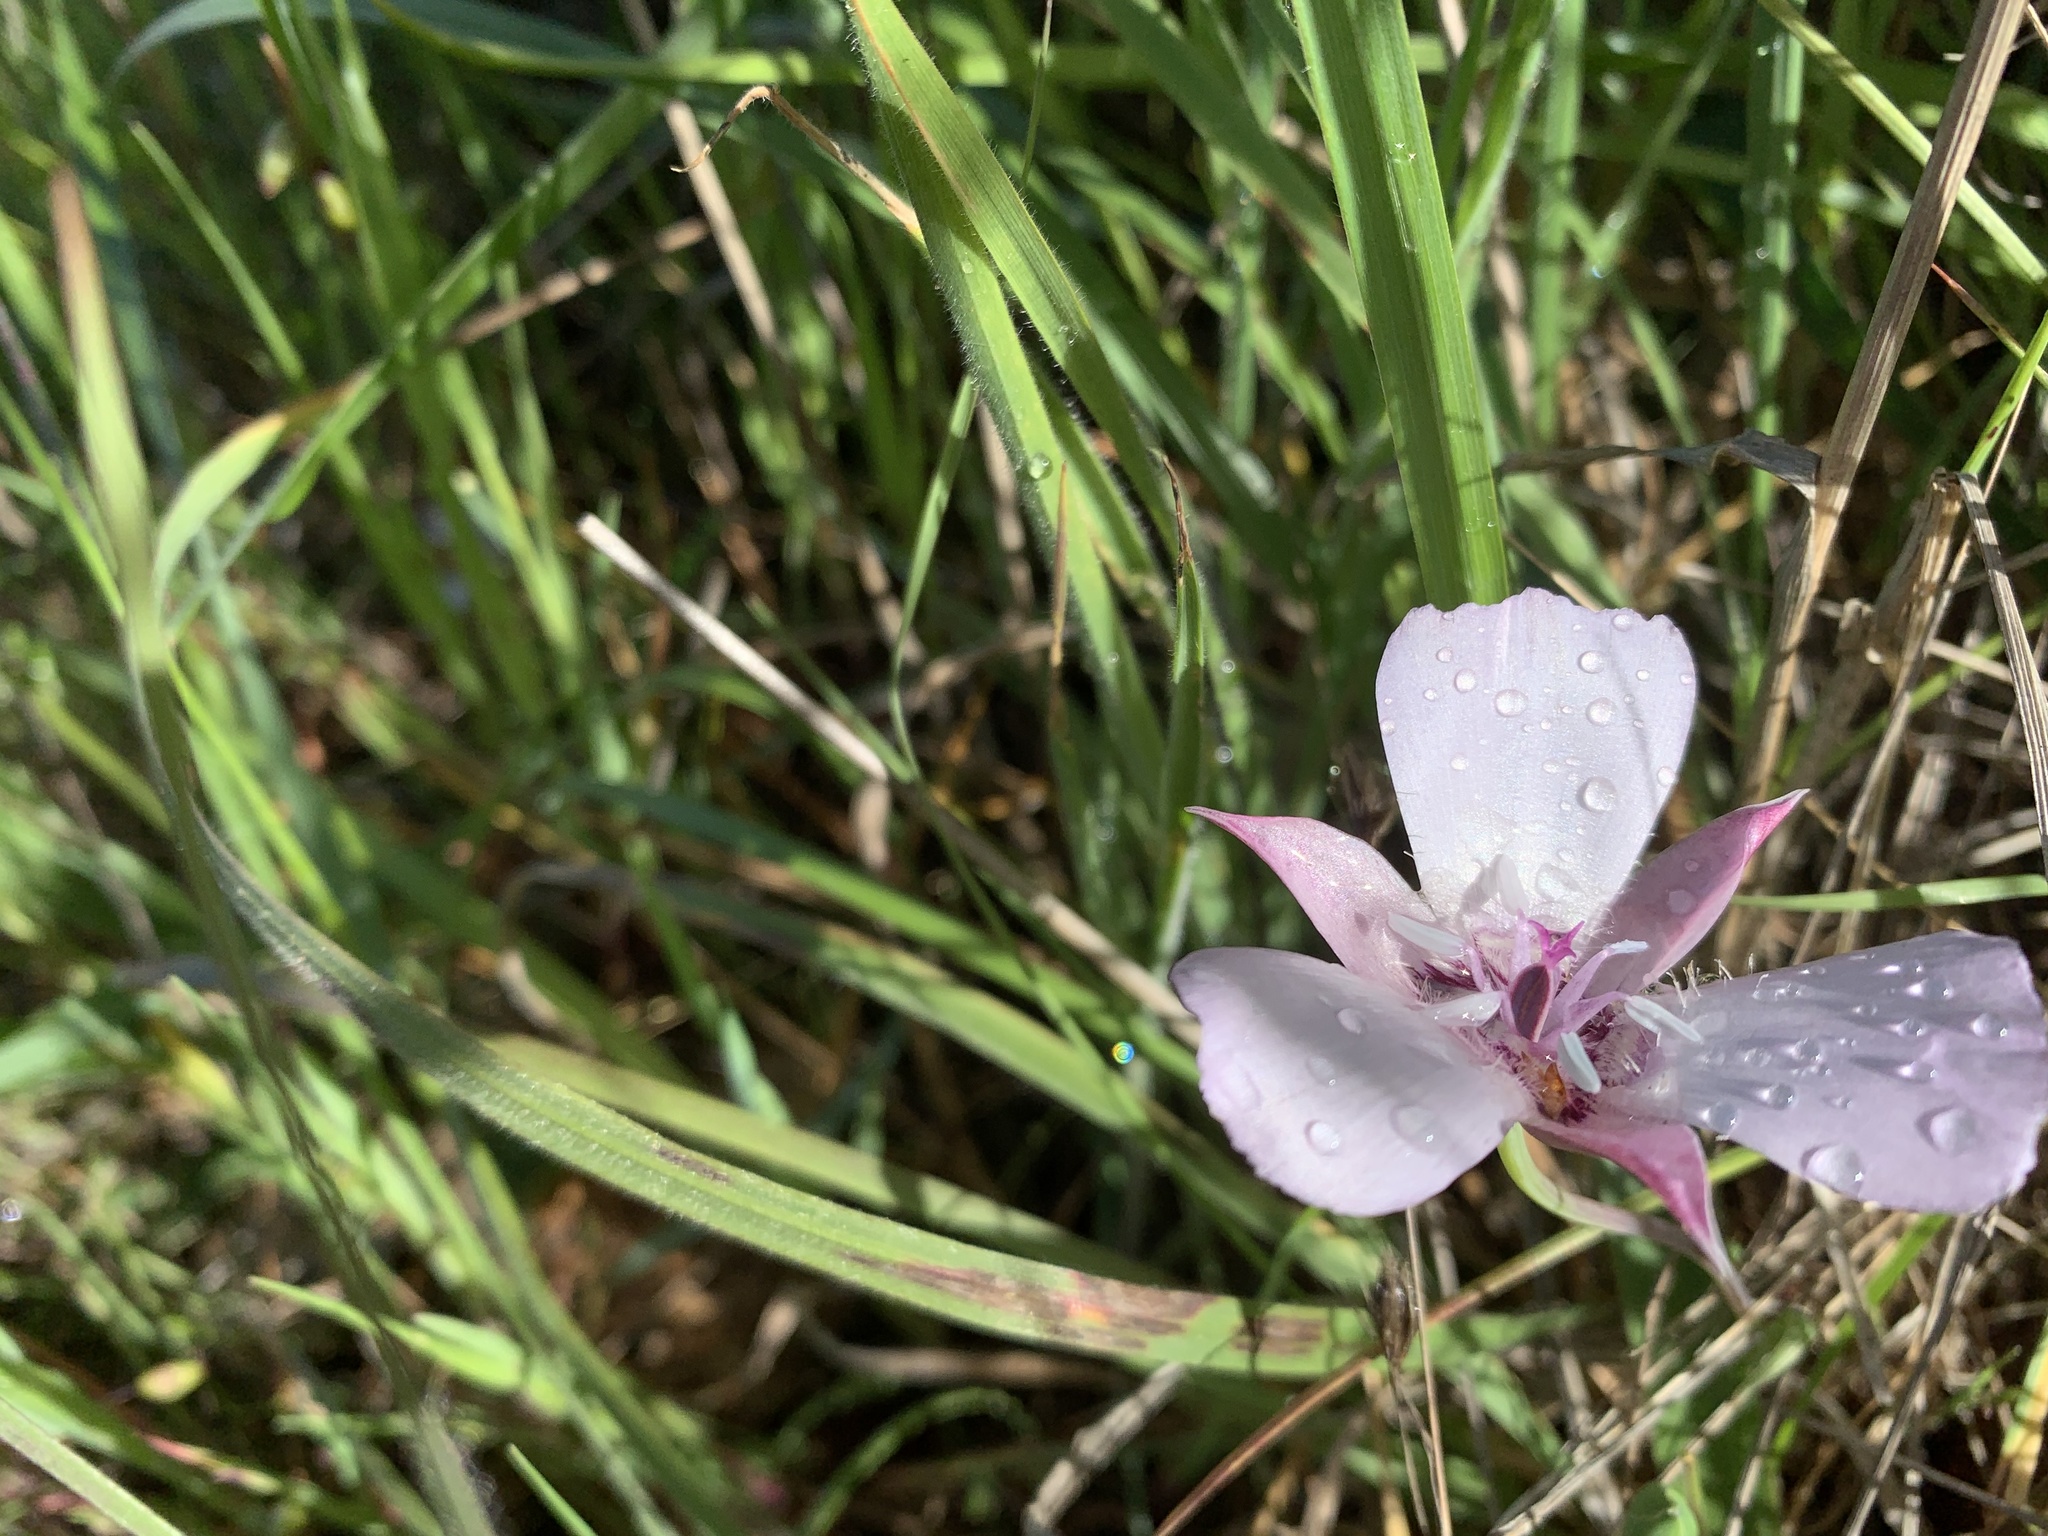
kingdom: Plantae
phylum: Tracheophyta
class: Liliopsida
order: Liliales
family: Liliaceae
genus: Calochortus
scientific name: Calochortus umbellatus
